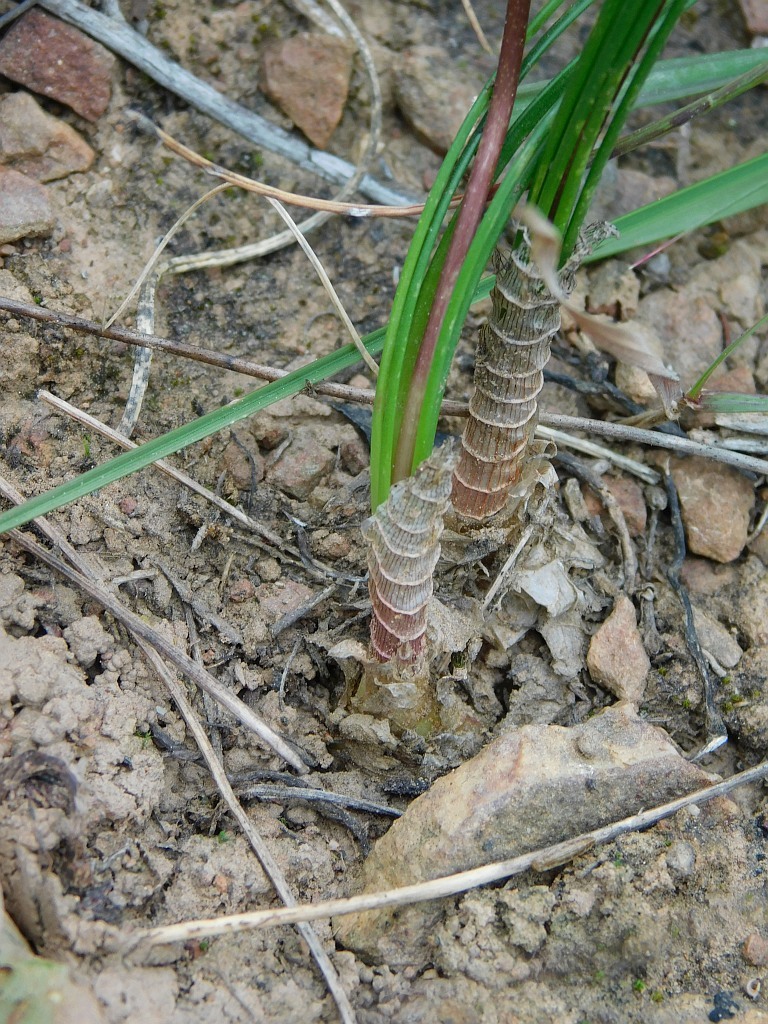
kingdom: Plantae
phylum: Tracheophyta
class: Liliopsida
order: Asparagales
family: Asparagaceae
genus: Drimia
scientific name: Drimia exuviata
